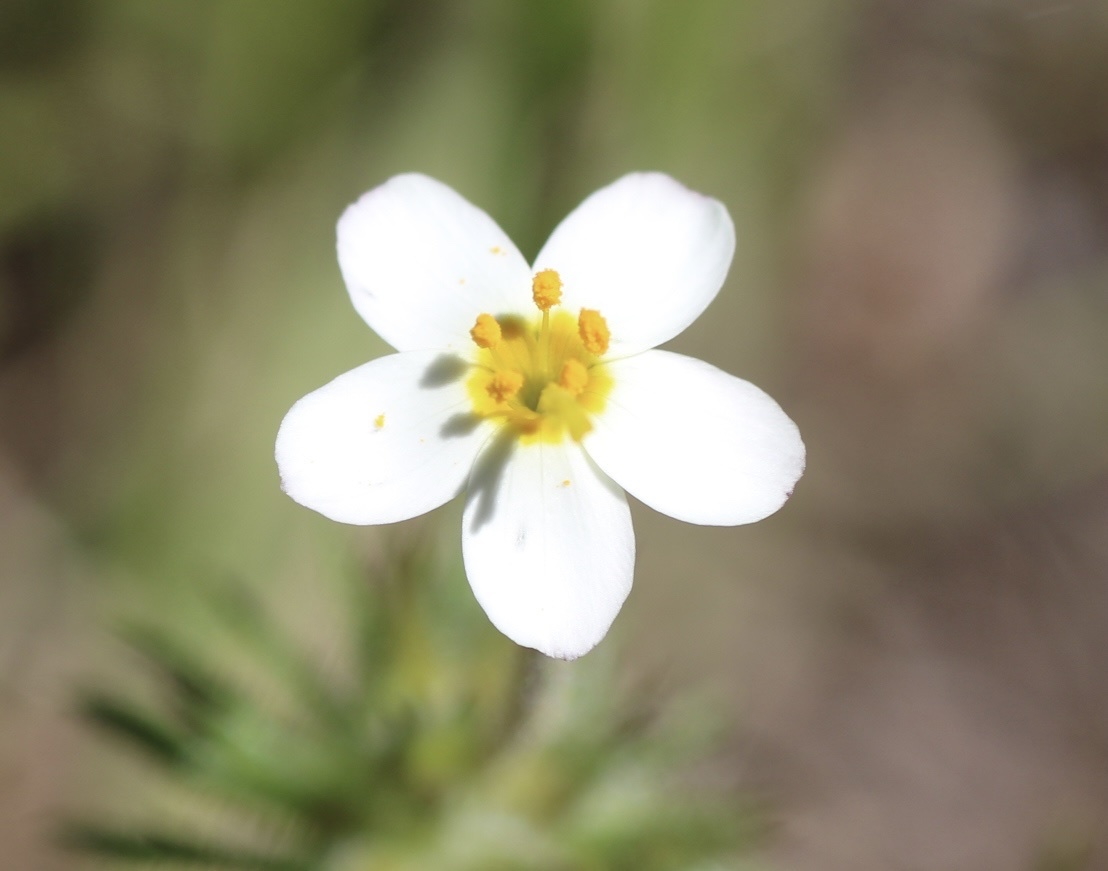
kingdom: Plantae
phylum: Tracheophyta
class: Magnoliopsida
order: Ericales
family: Polemoniaceae
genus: Leptosiphon
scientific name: Leptosiphon parviflorus
